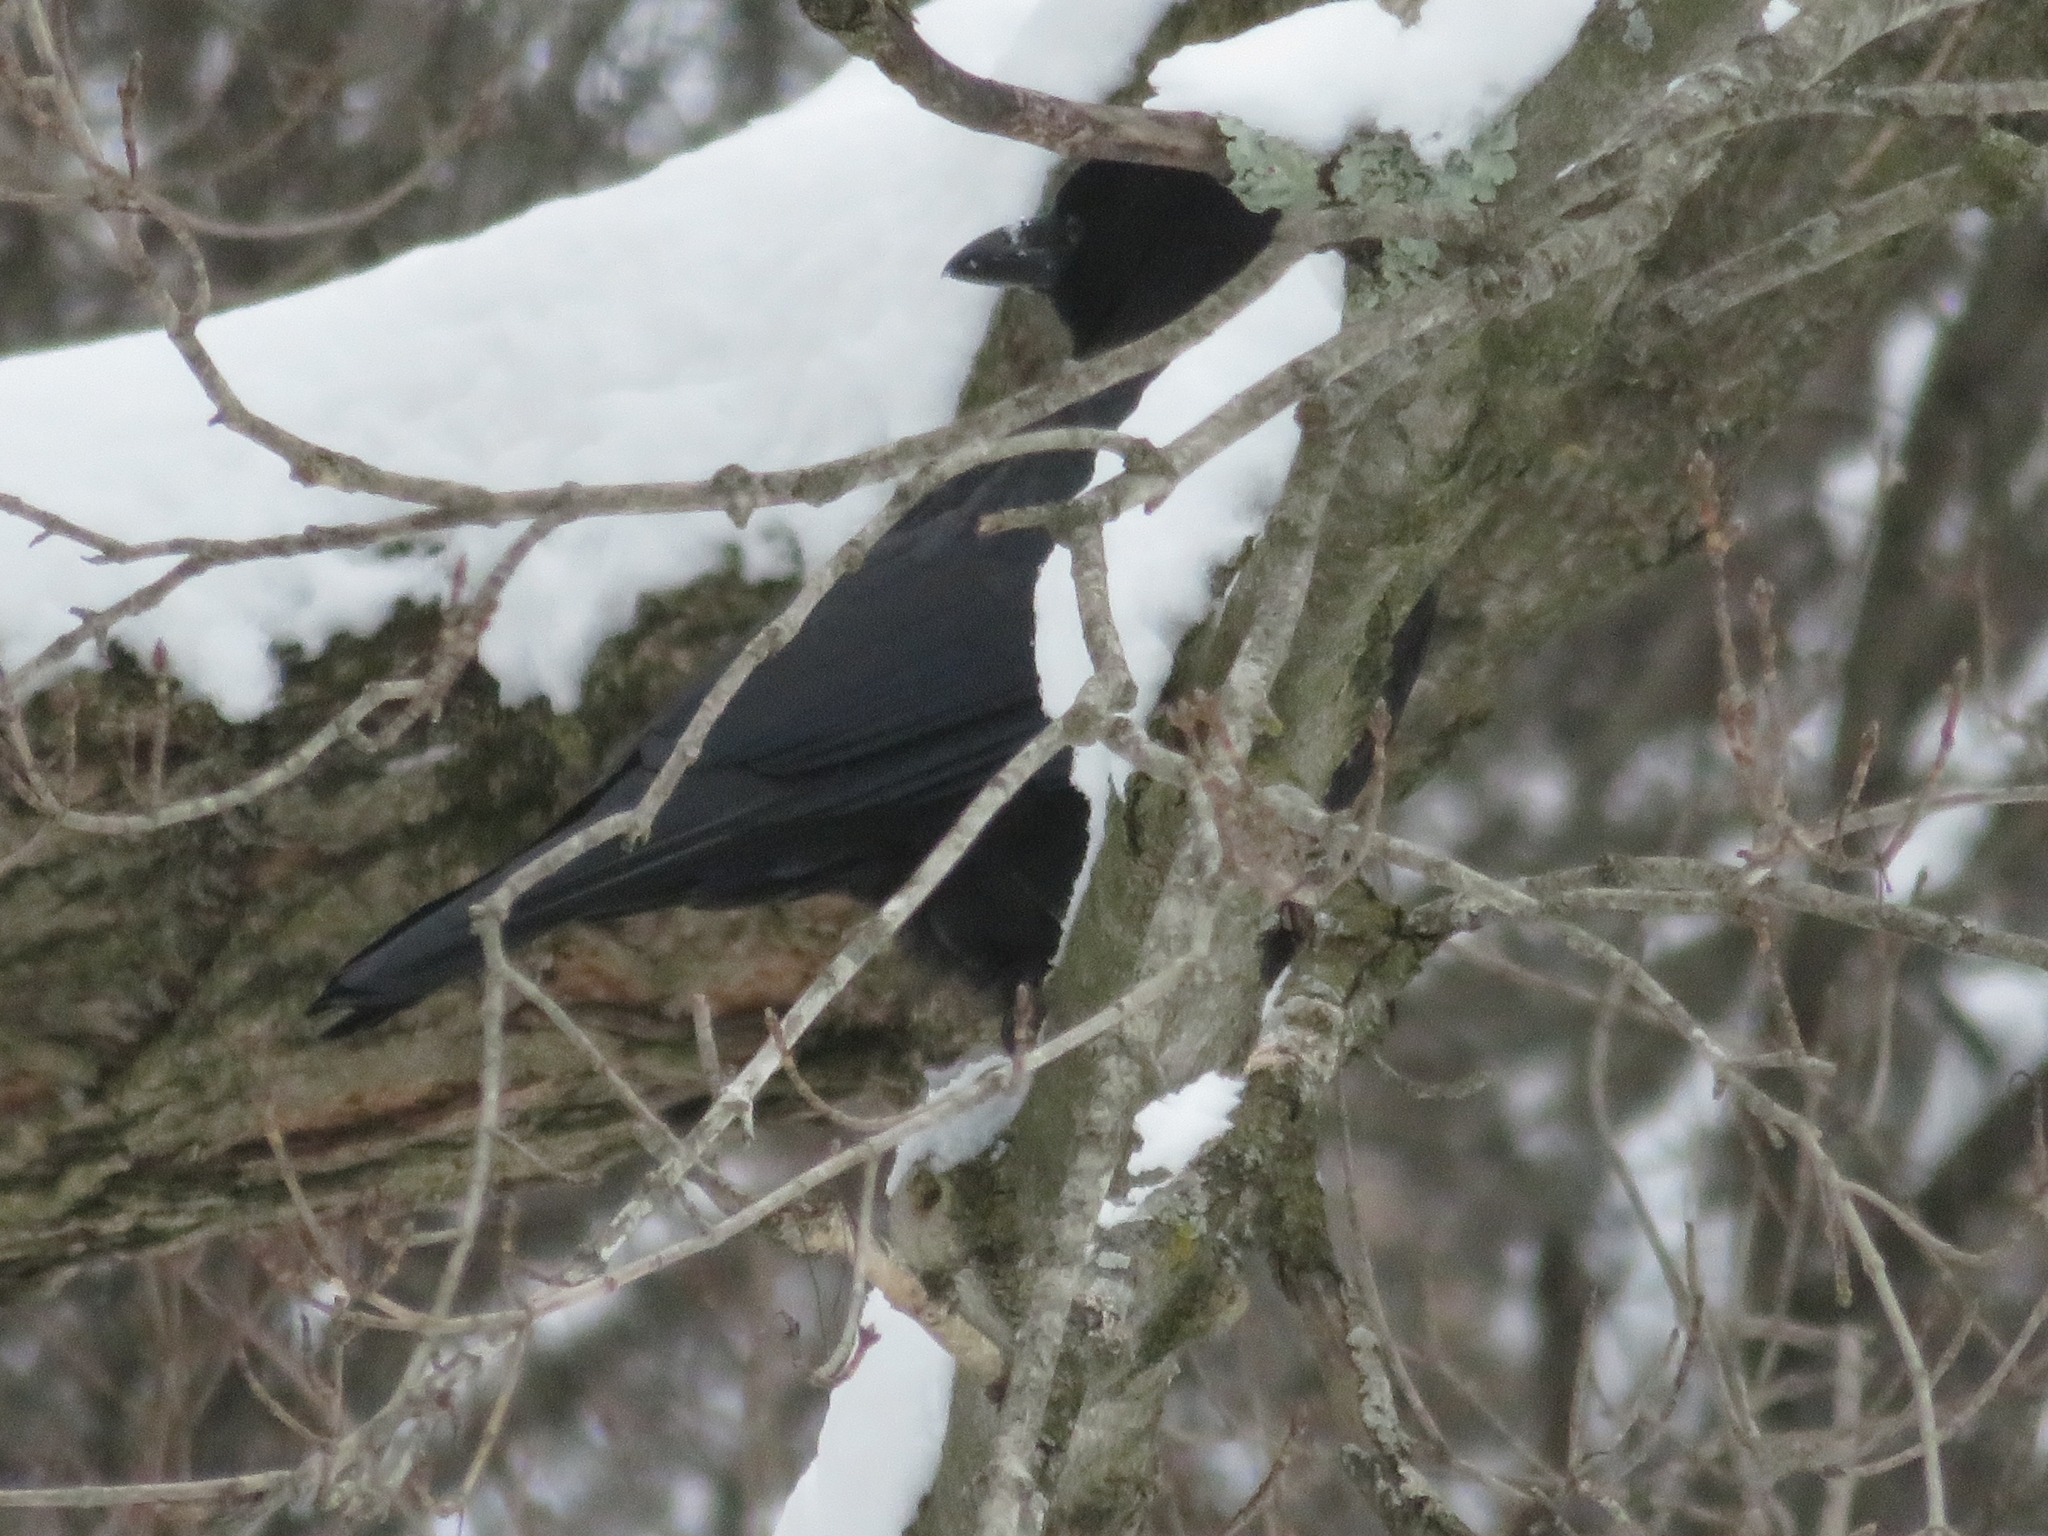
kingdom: Animalia
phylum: Chordata
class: Aves
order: Passeriformes
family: Corvidae
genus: Corvus
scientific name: Corvus brachyrhynchos
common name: American crow
